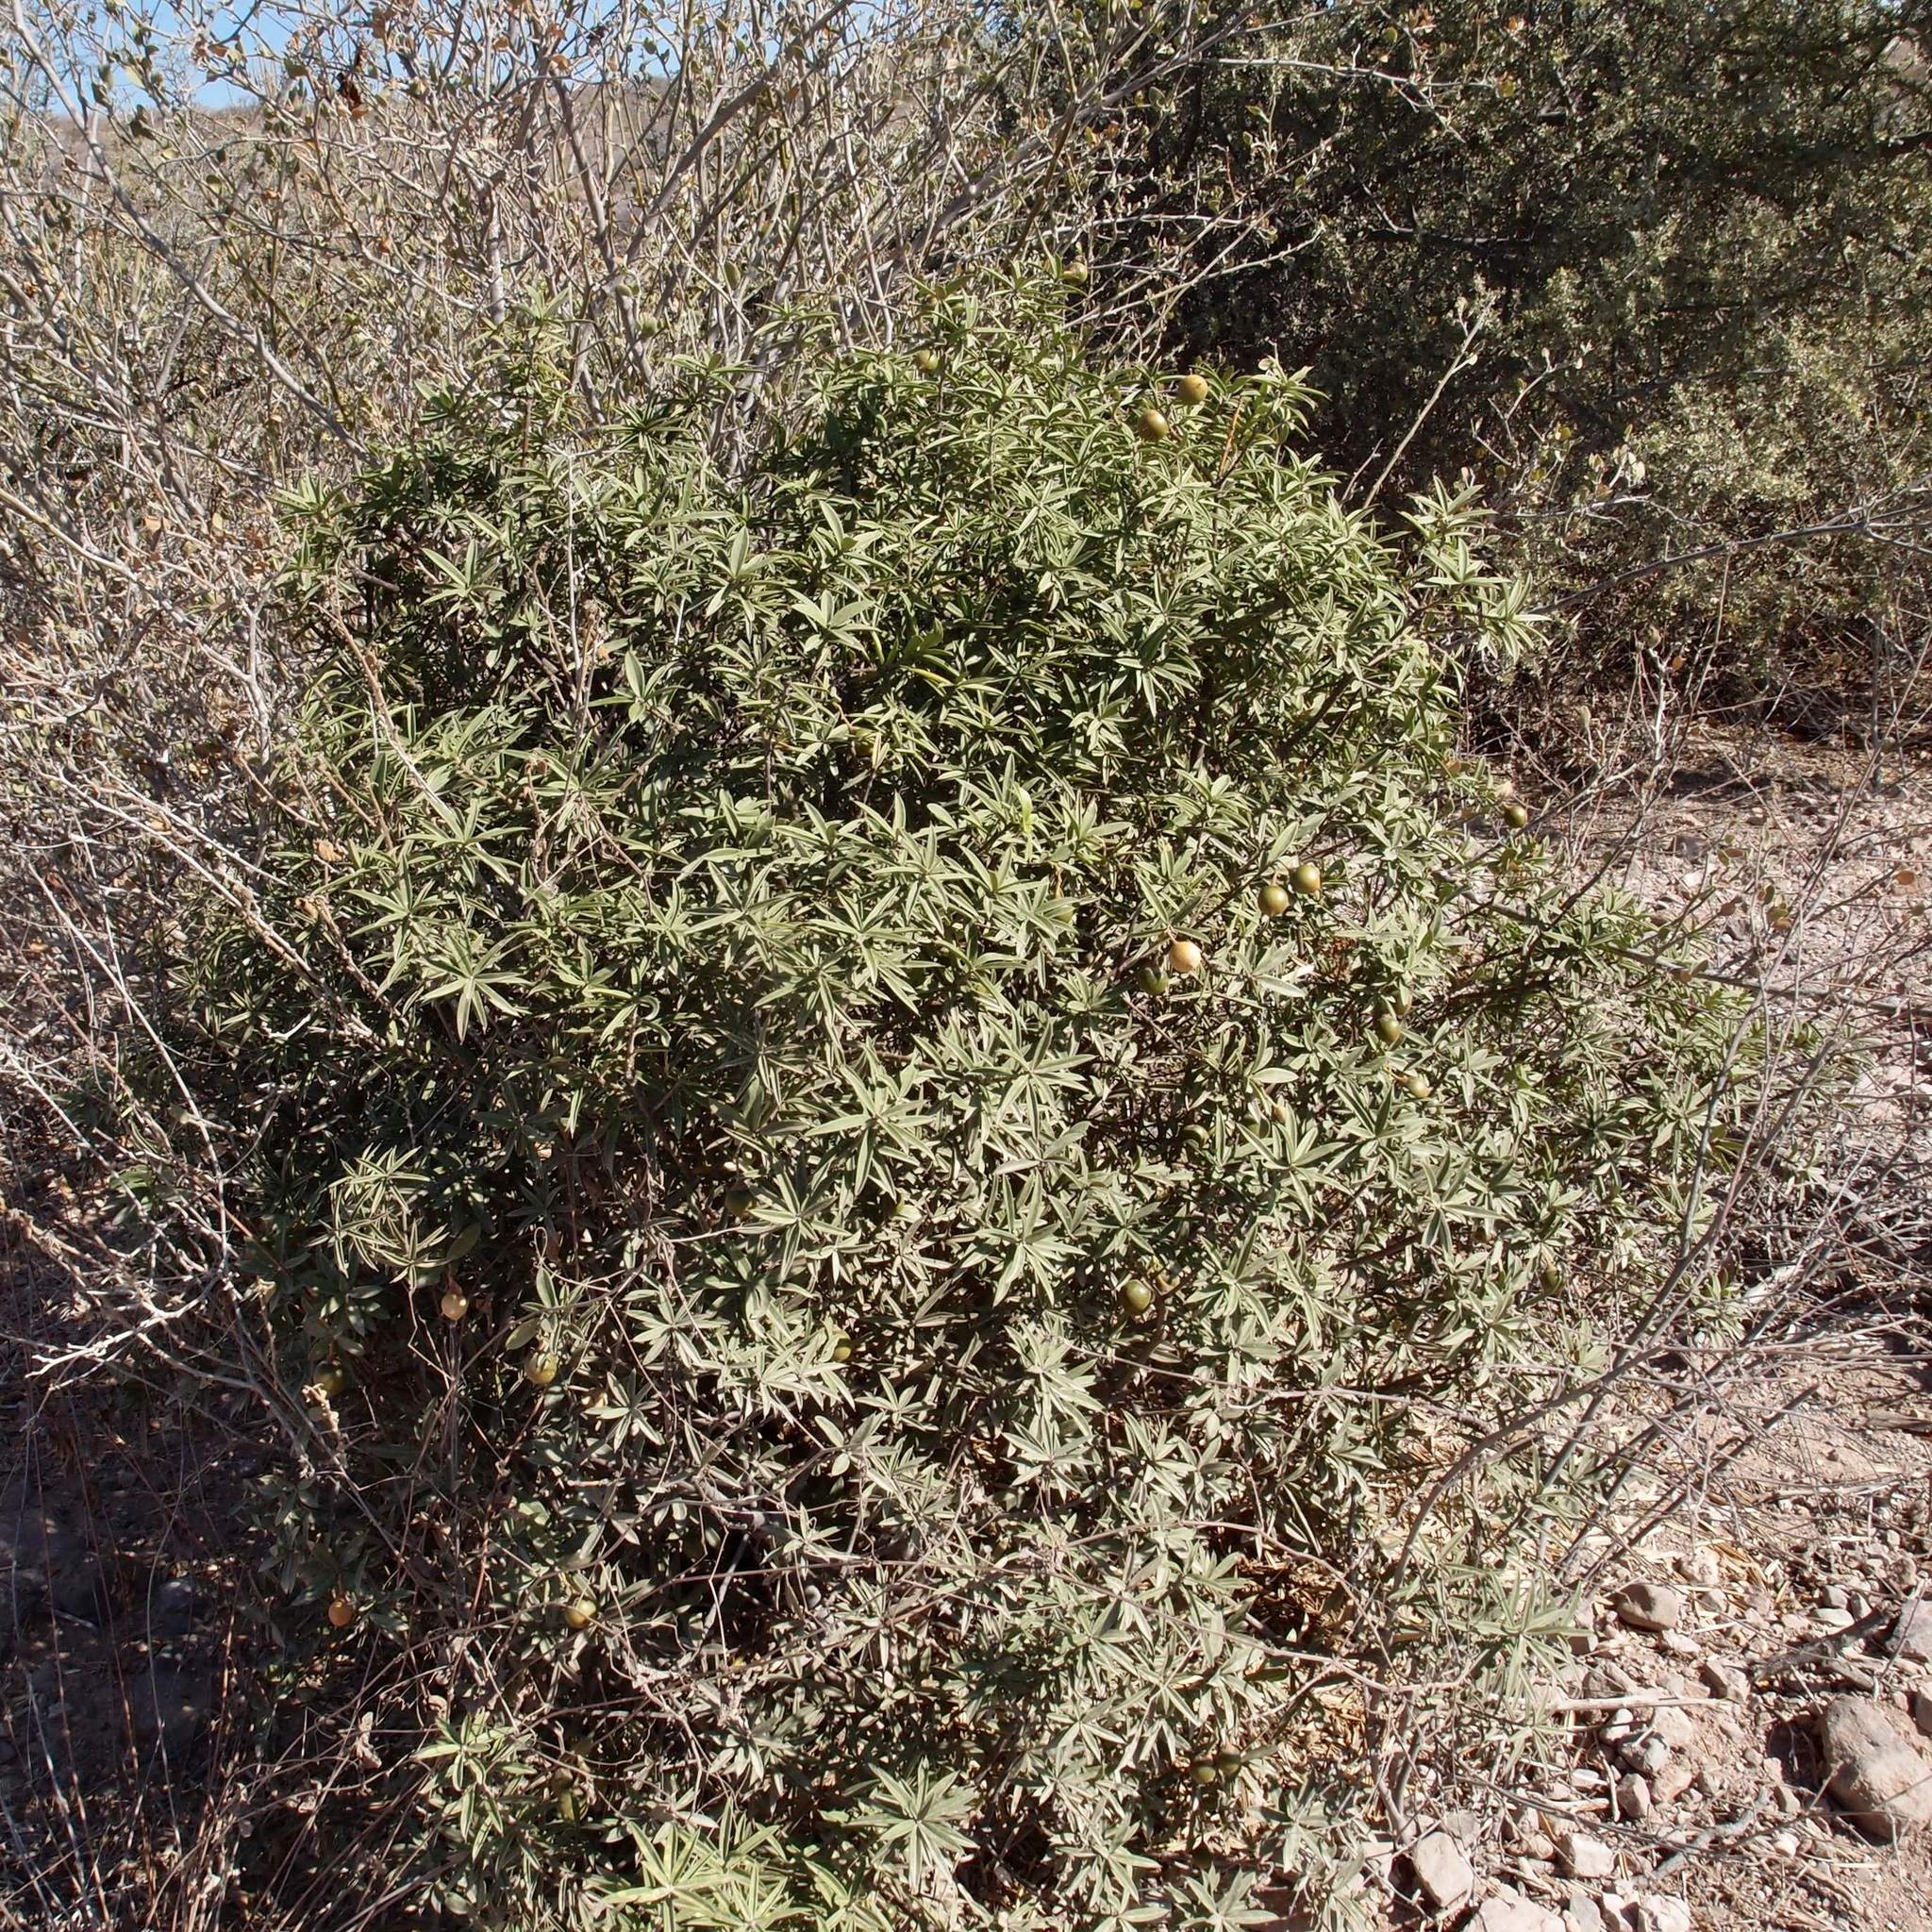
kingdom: Plantae
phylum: Tracheophyta
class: Magnoliopsida
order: Ericales
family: Primulaceae
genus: Bonellia
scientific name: Bonellia macrocarpa
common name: Primrose
